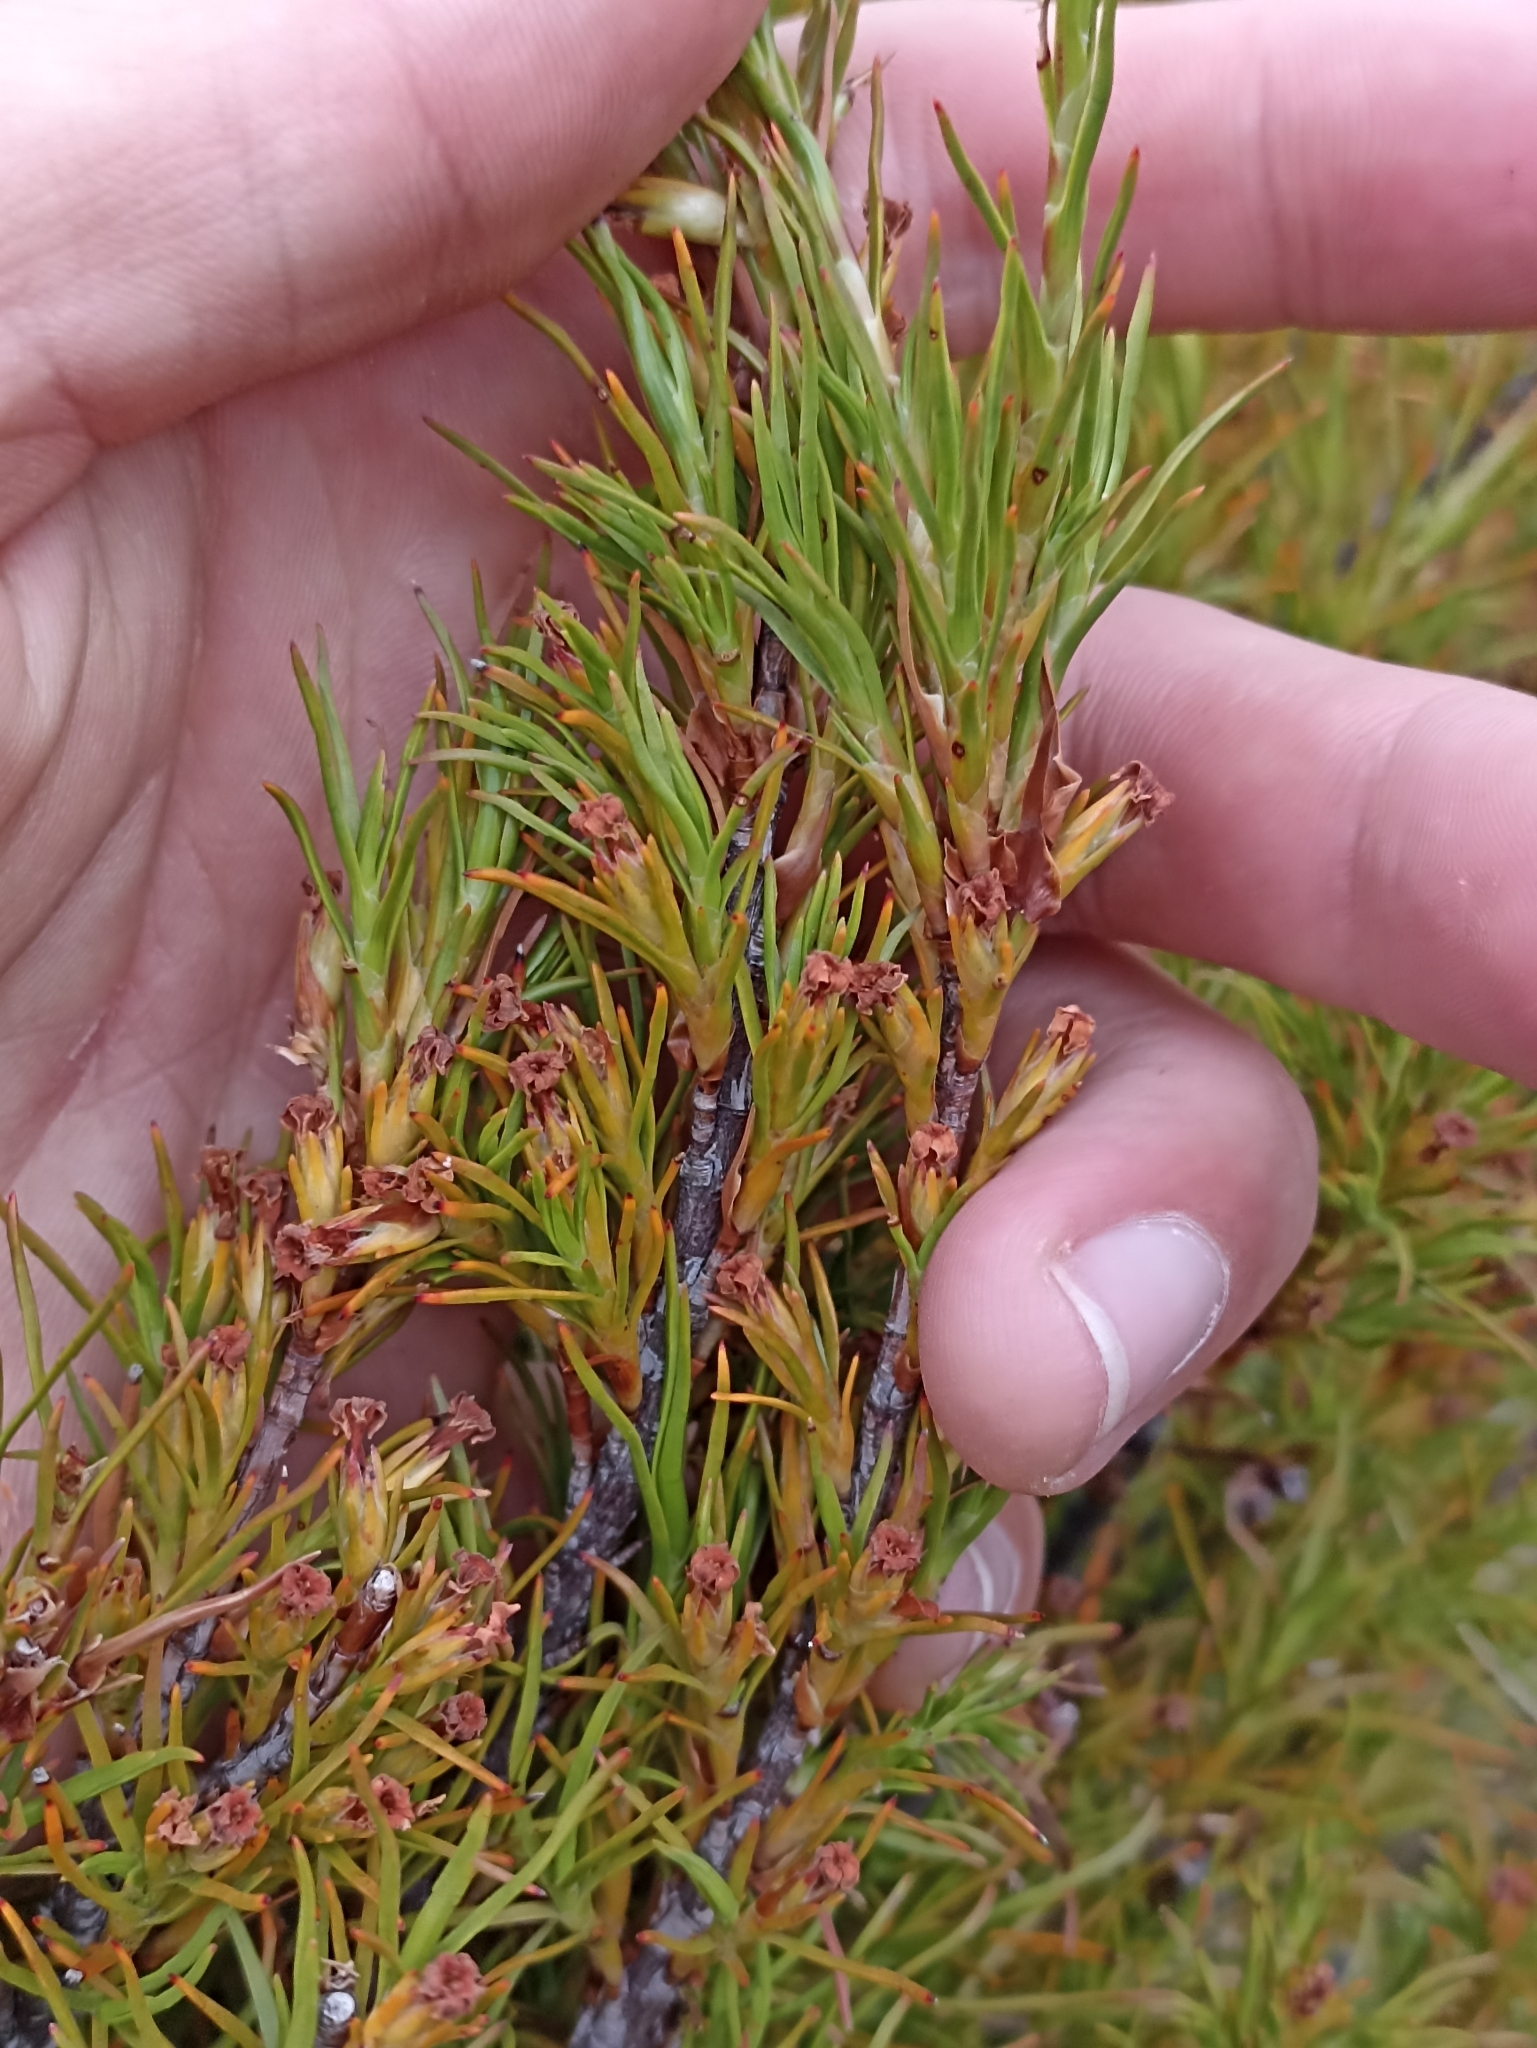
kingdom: Plantae
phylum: Tracheophyta
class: Magnoliopsida
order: Ericales
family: Ericaceae
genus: Dracophyllum
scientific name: Dracophyllum rosmarinifolium
